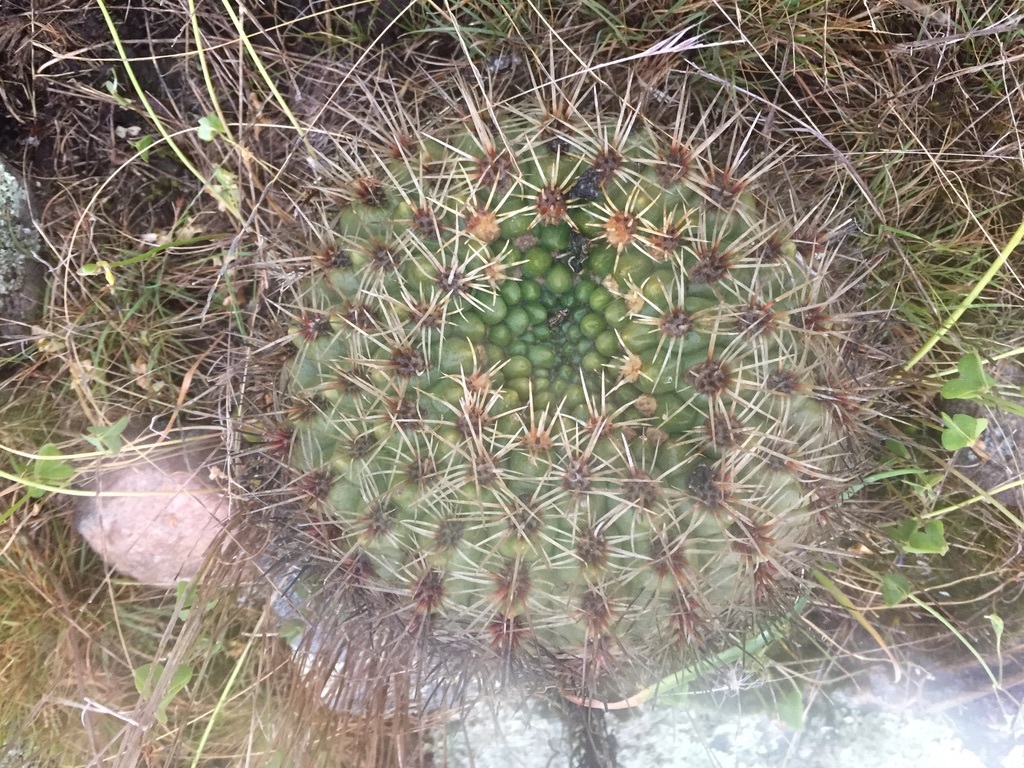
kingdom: Plantae
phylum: Tracheophyta
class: Magnoliopsida
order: Caryophyllales
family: Cactaceae
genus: Gymnocalycium
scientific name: Gymnocalycium reductum
